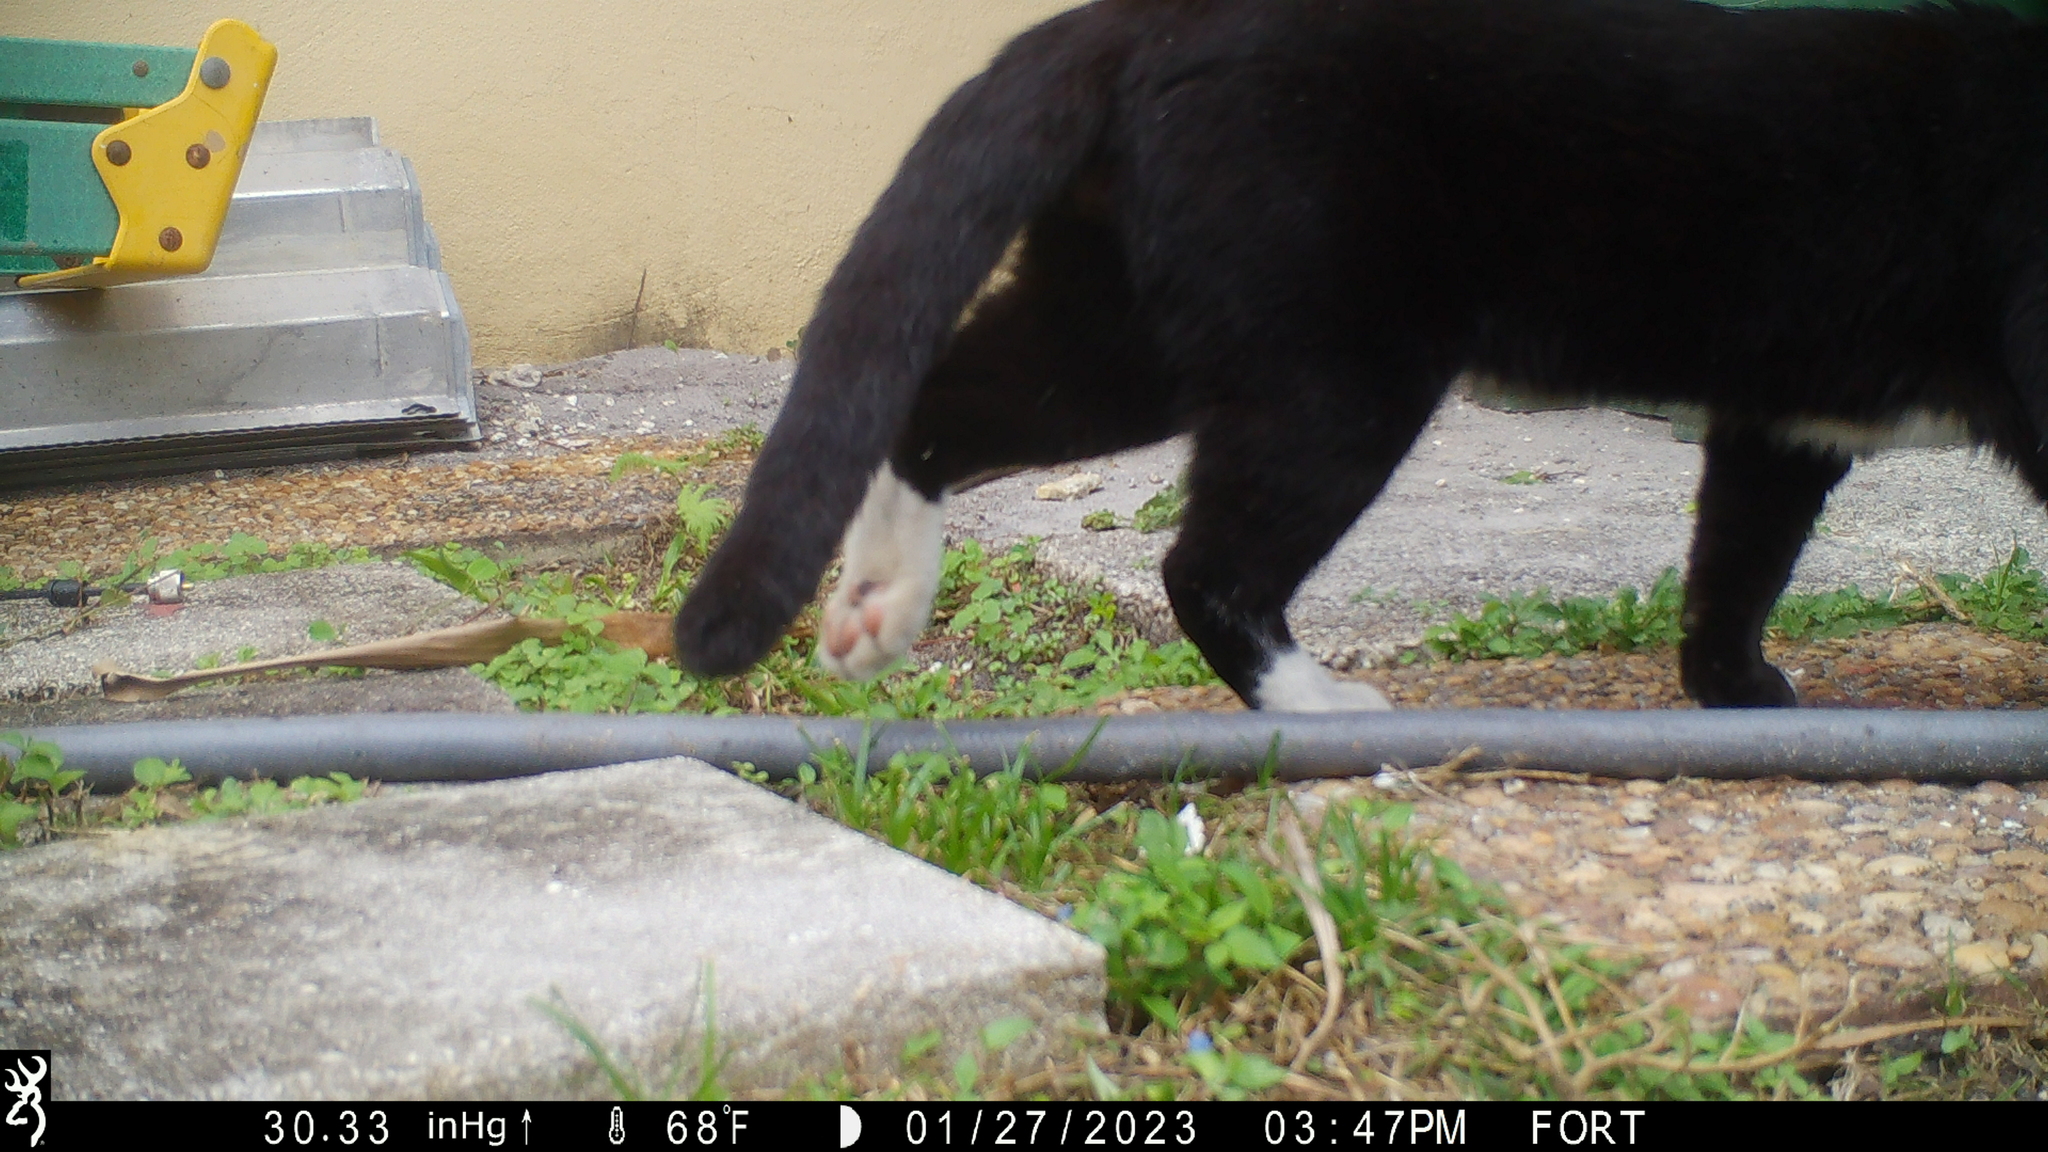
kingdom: Animalia
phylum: Chordata
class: Mammalia
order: Carnivora
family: Felidae
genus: Felis
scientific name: Felis catus
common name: Domestic cat
